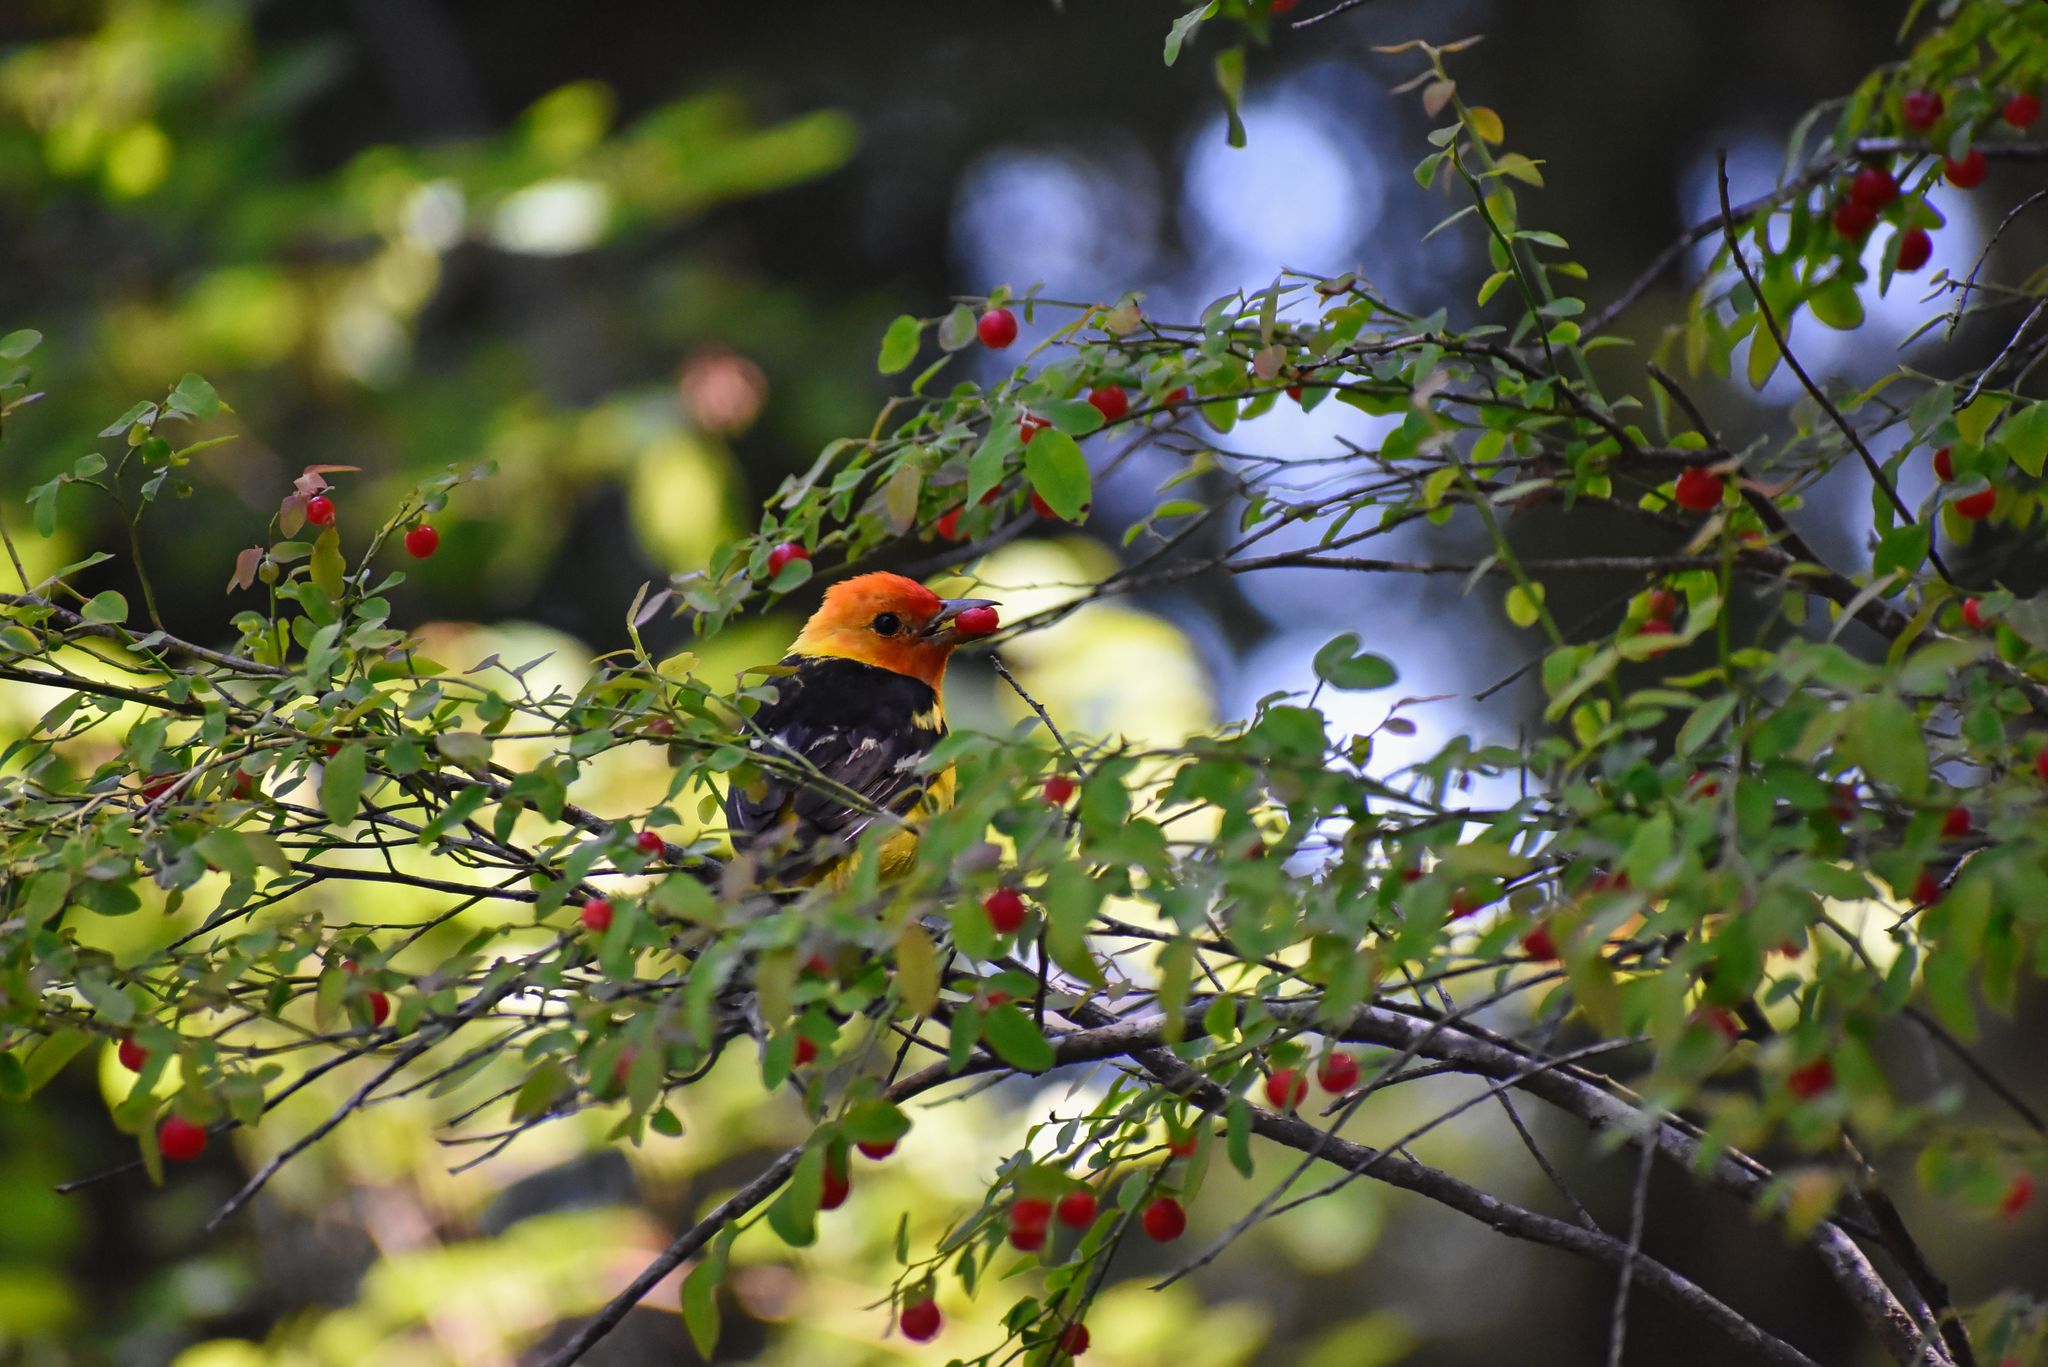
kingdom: Animalia
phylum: Chordata
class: Aves
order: Passeriformes
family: Cardinalidae
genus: Piranga
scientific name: Piranga ludoviciana
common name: Western tanager
